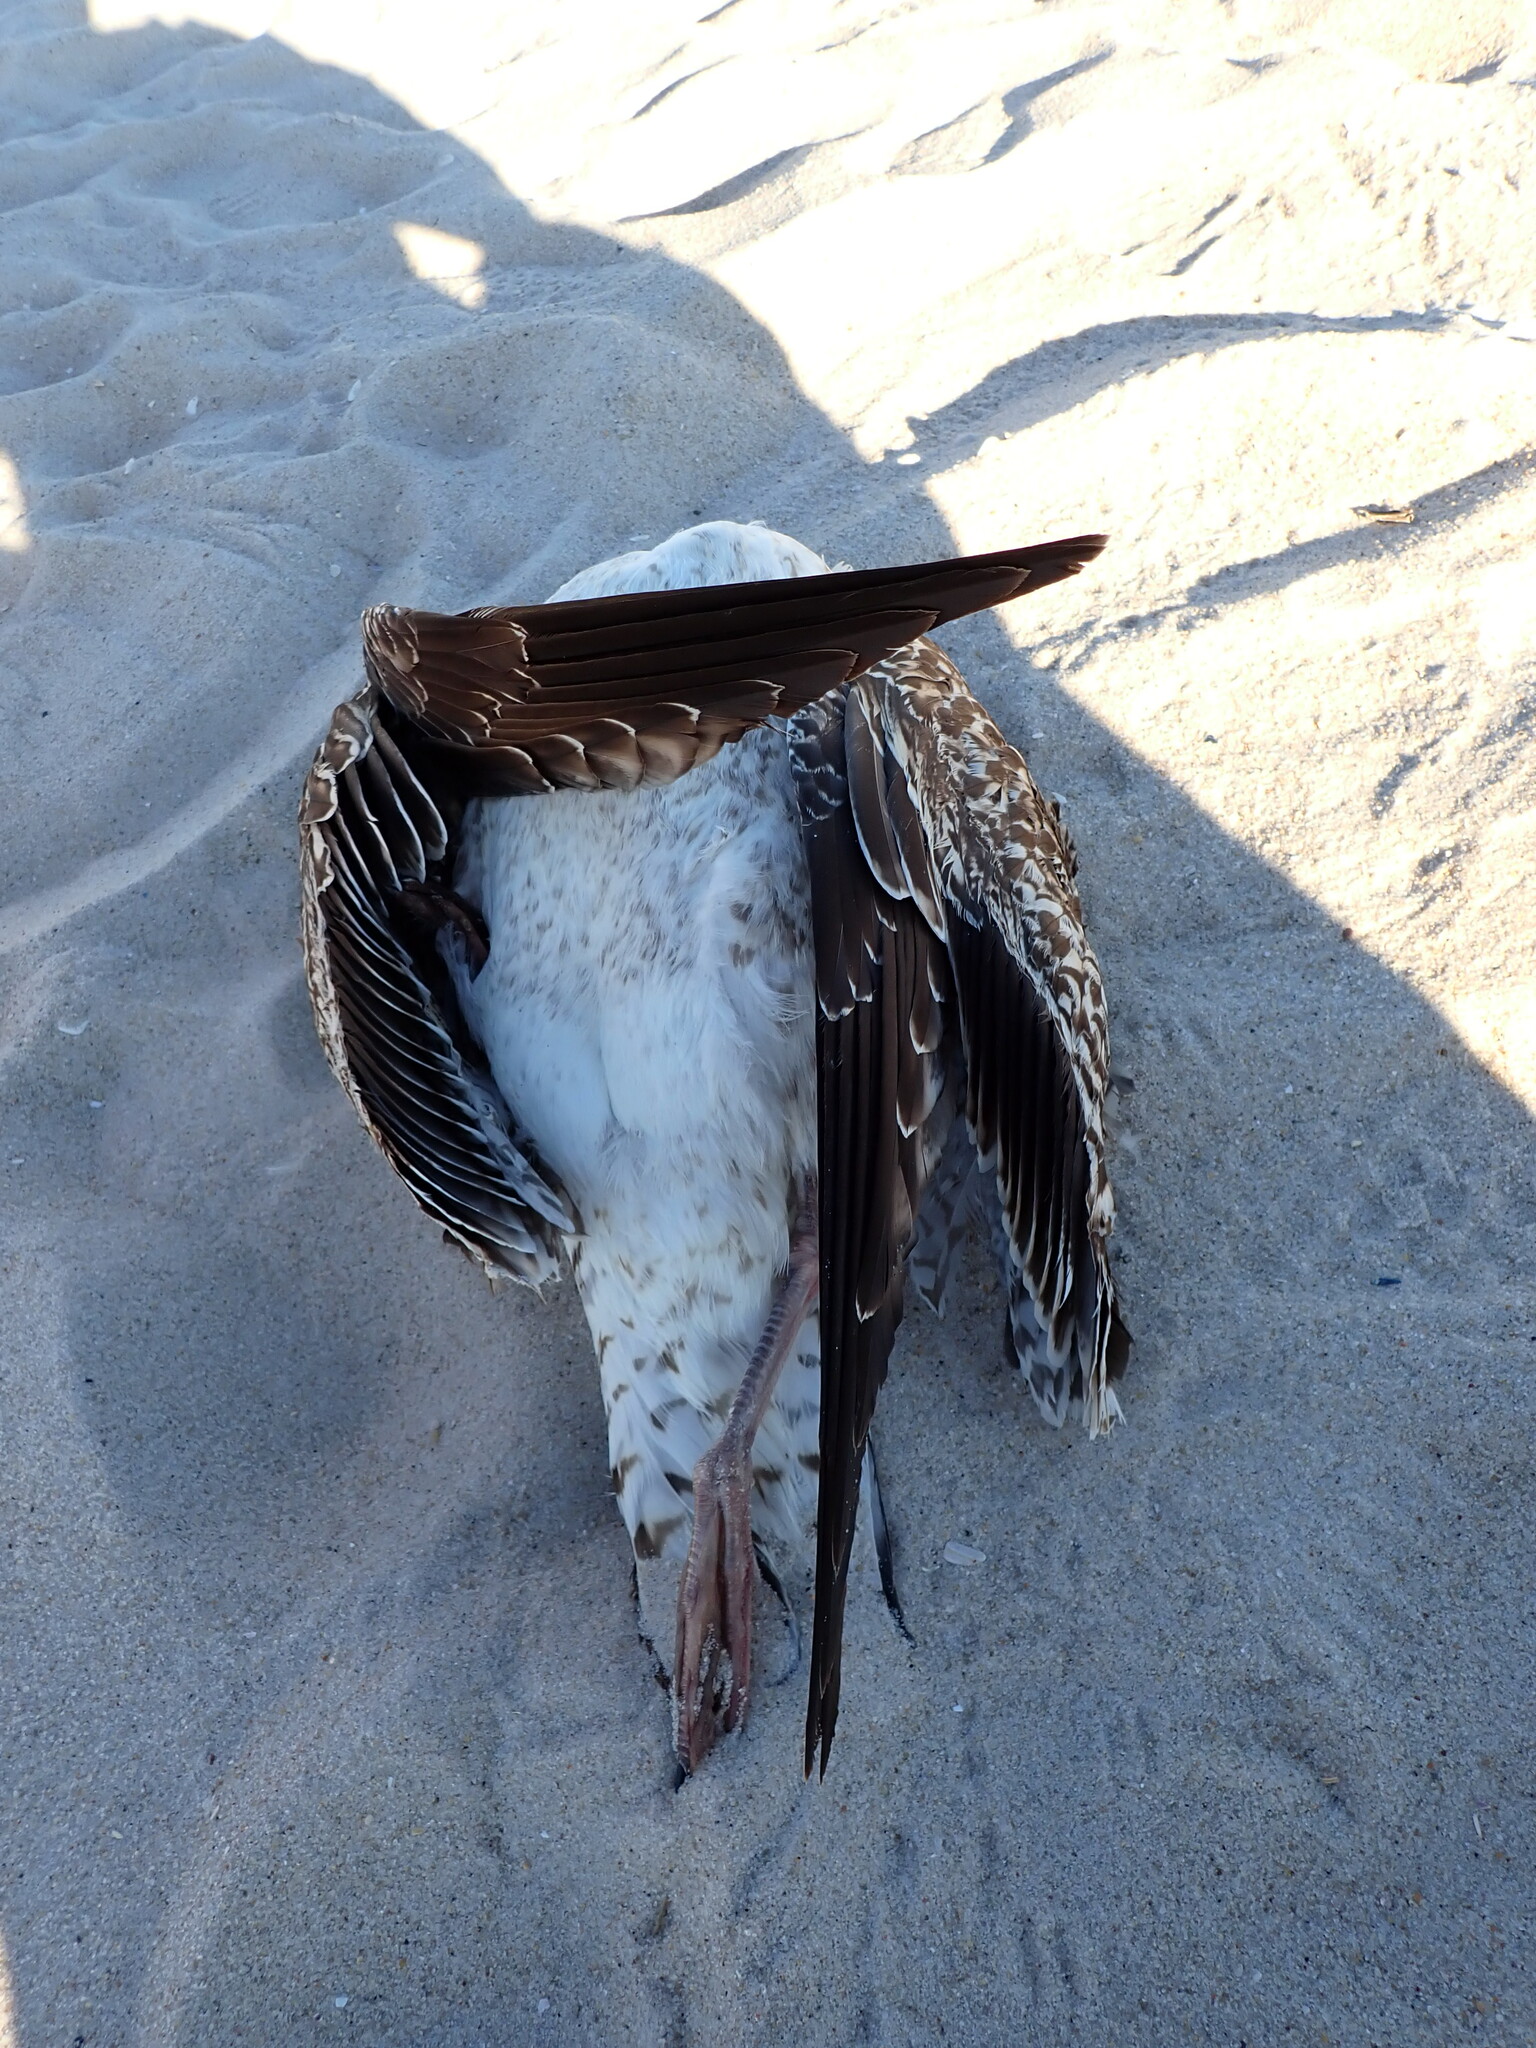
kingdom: Animalia
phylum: Chordata
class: Aves
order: Charadriiformes
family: Laridae
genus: Larus
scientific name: Larus marinus
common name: Great black-backed gull
